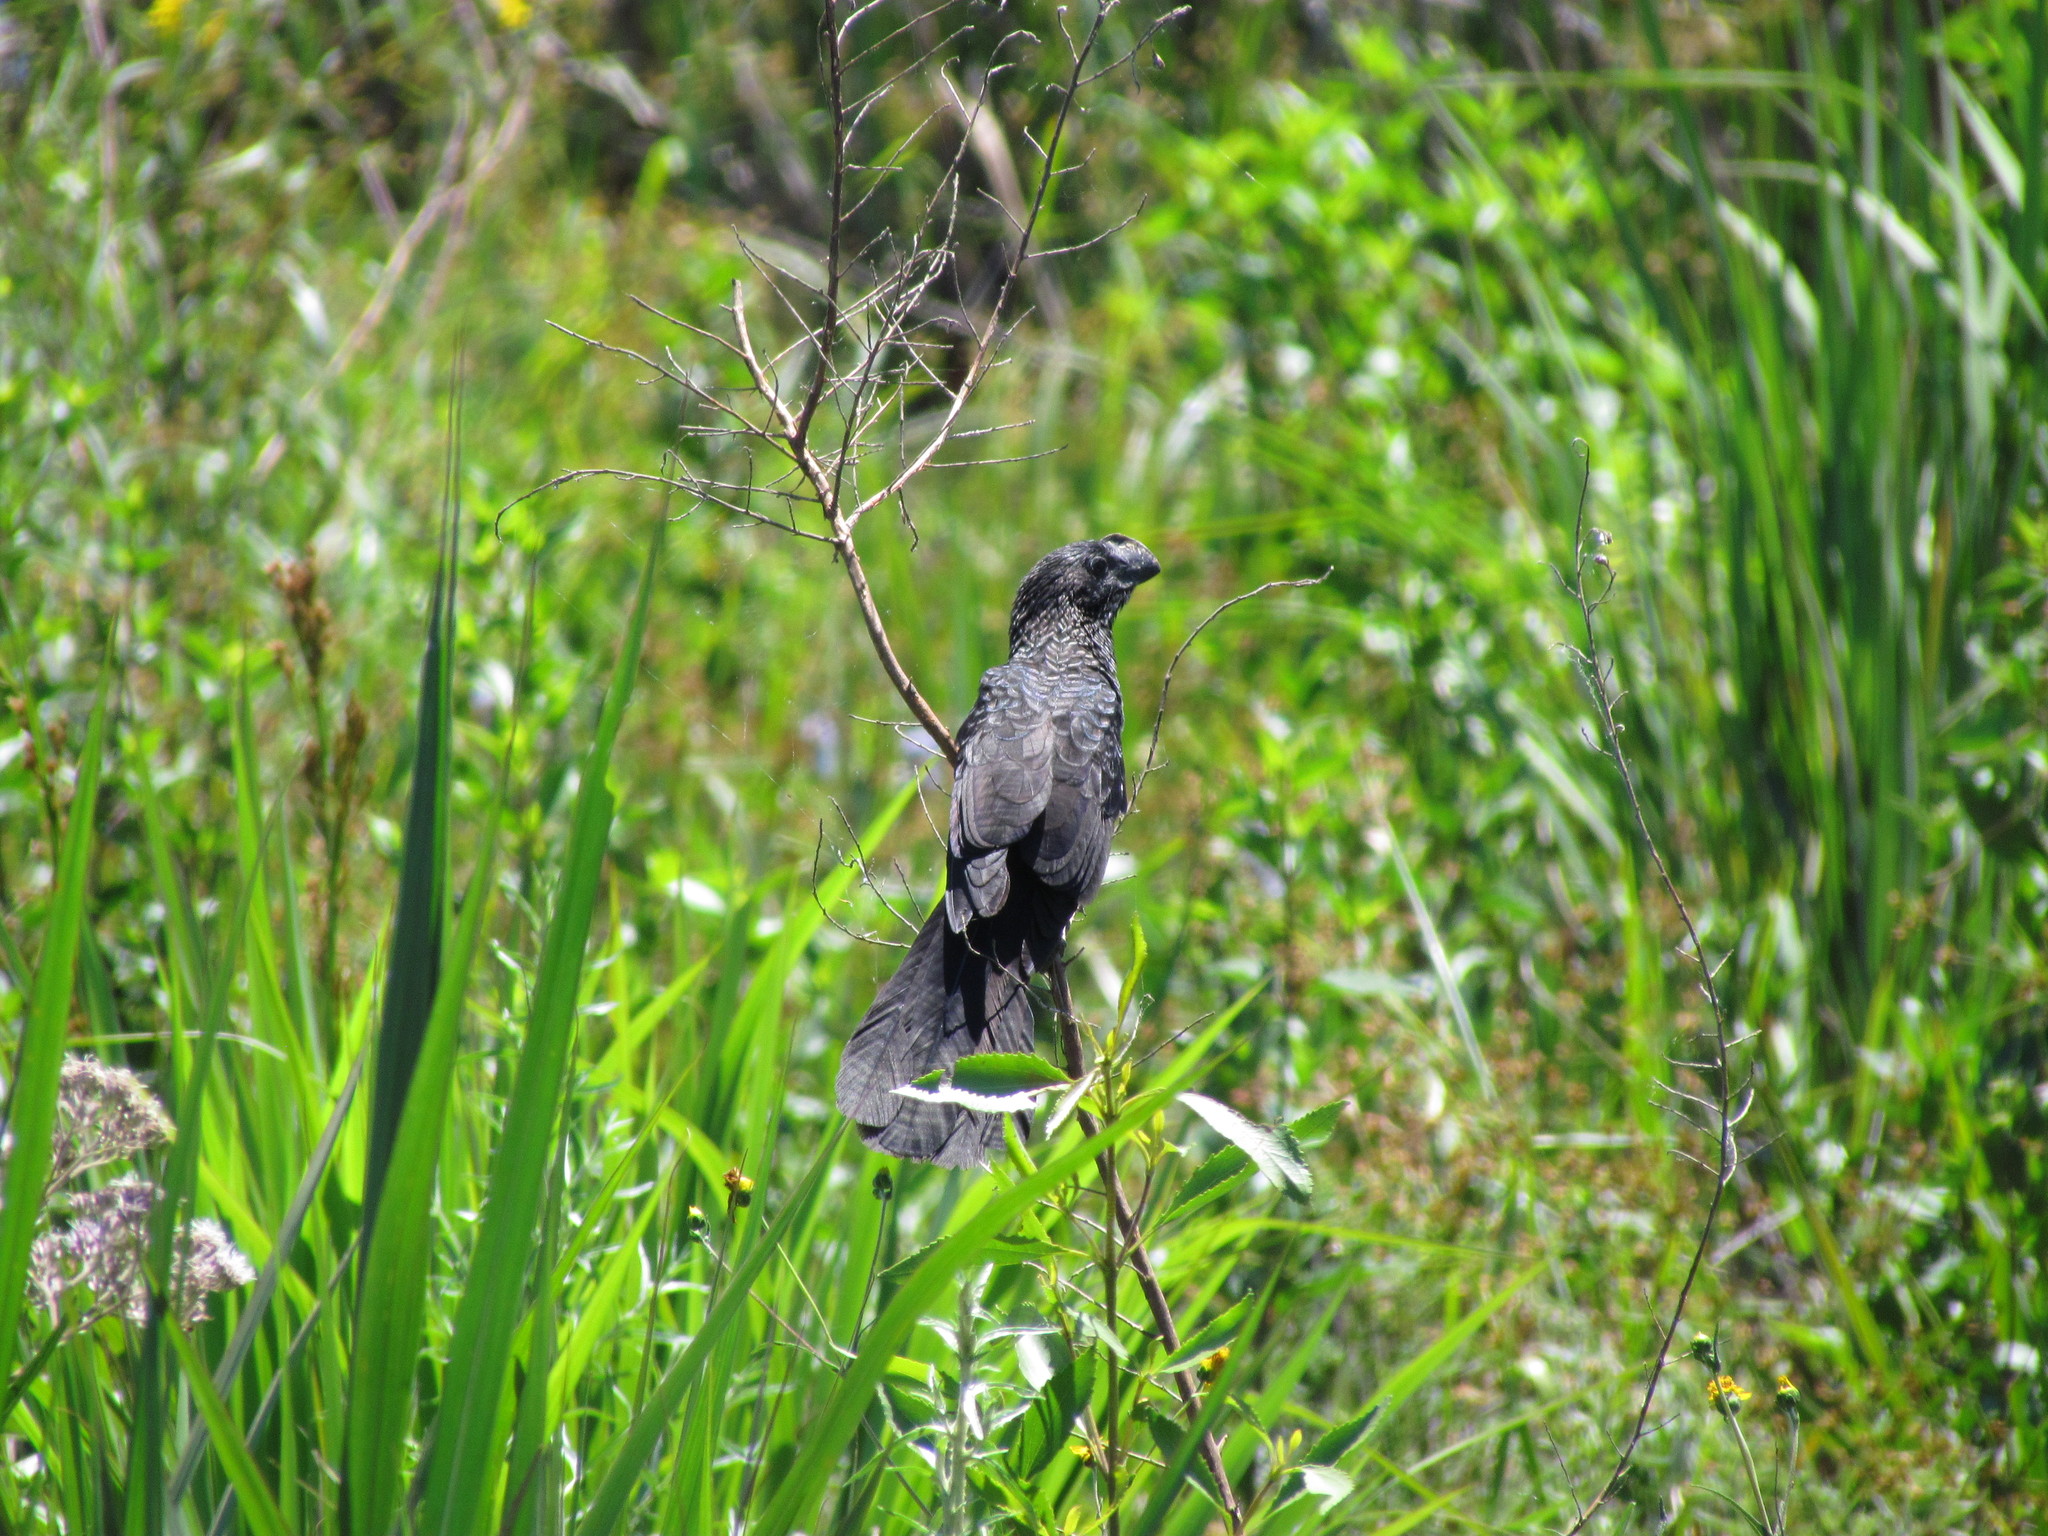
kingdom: Animalia
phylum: Chordata
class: Aves
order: Cuculiformes
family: Cuculidae
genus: Crotophaga
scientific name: Crotophaga ani
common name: Smooth-billed ani
